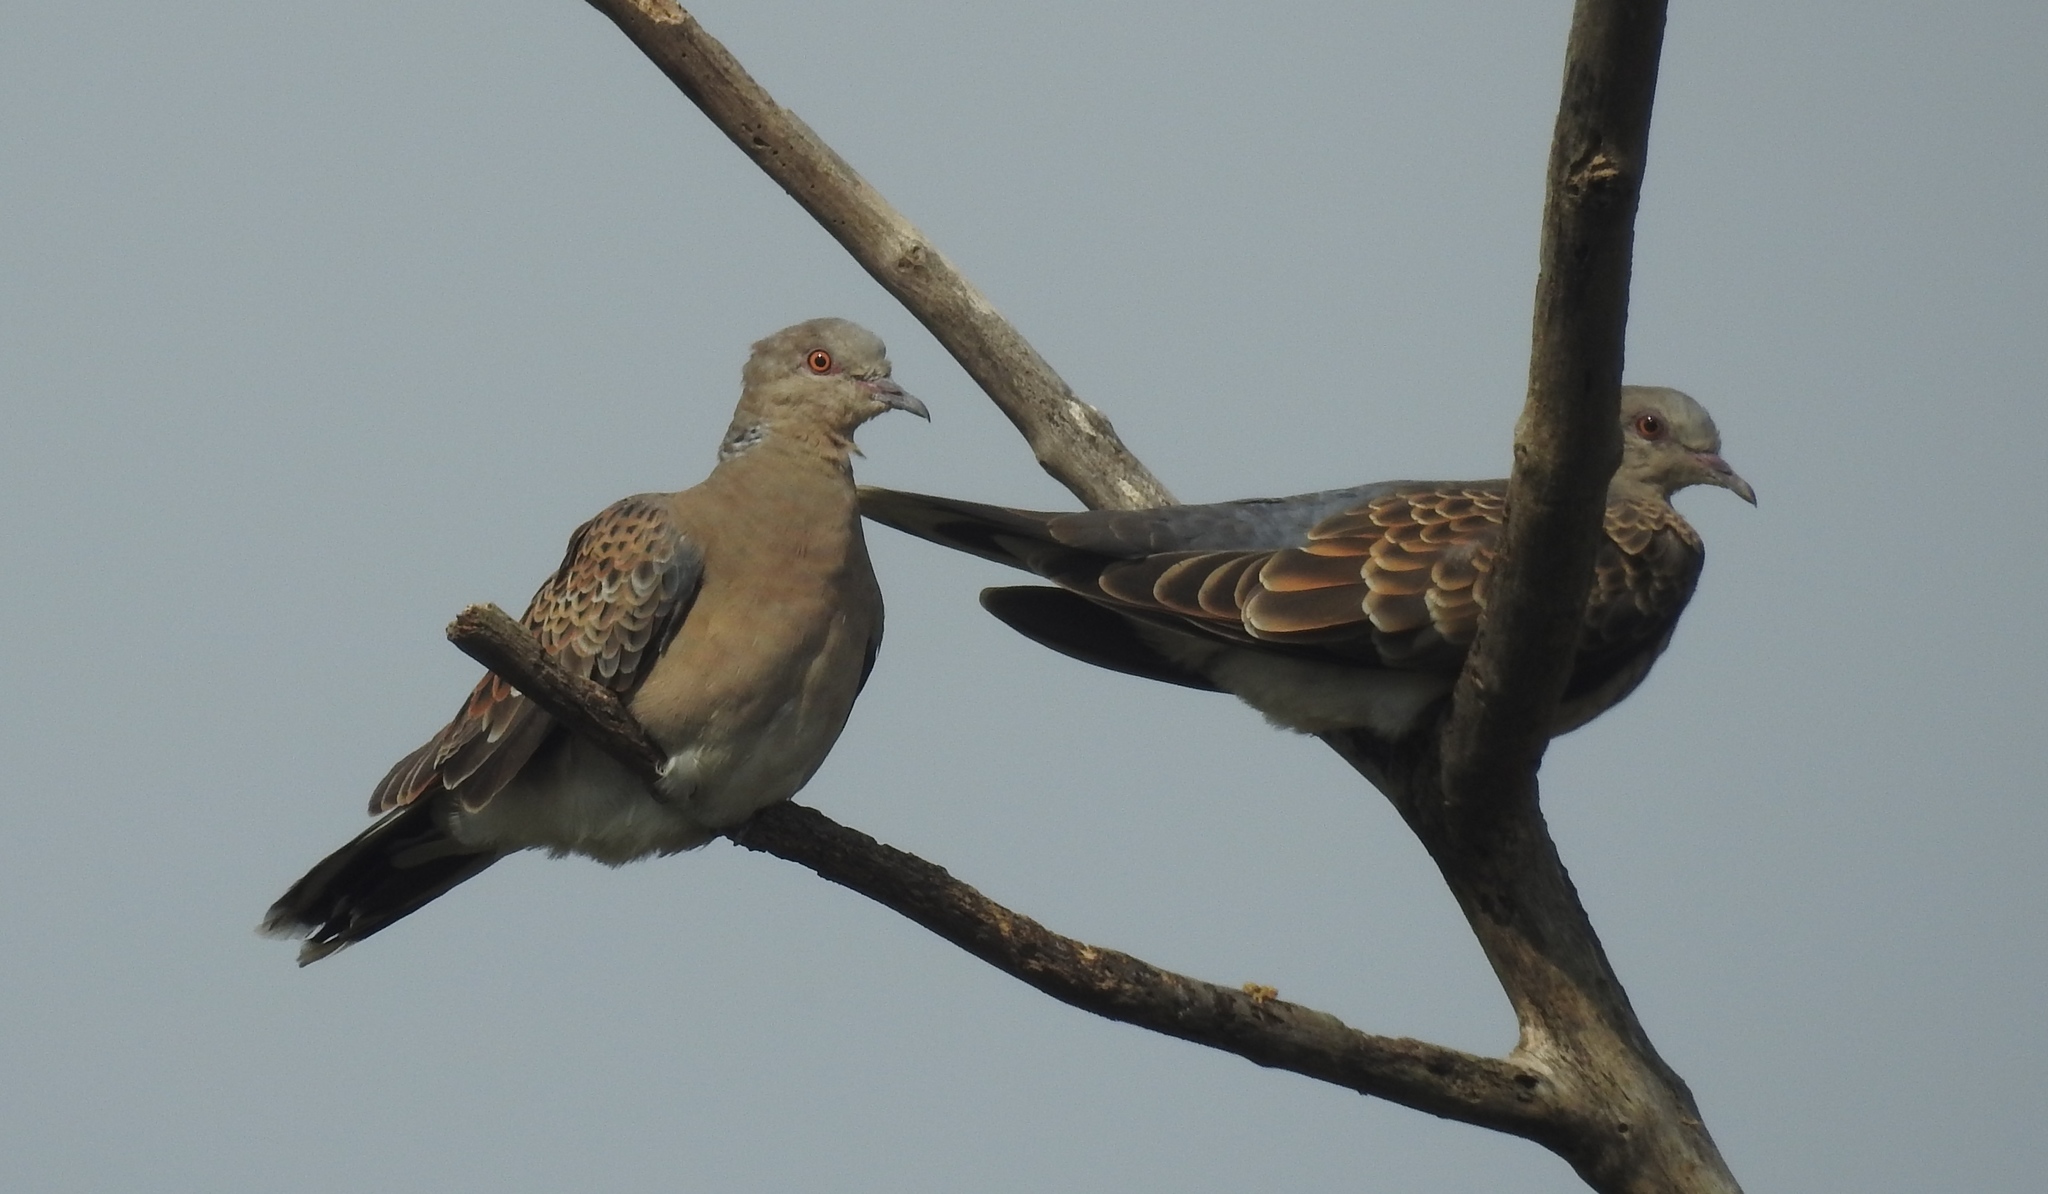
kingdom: Animalia
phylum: Chordata
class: Aves
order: Columbiformes
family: Columbidae
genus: Streptopelia
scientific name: Streptopelia orientalis
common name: Oriental turtle dove
